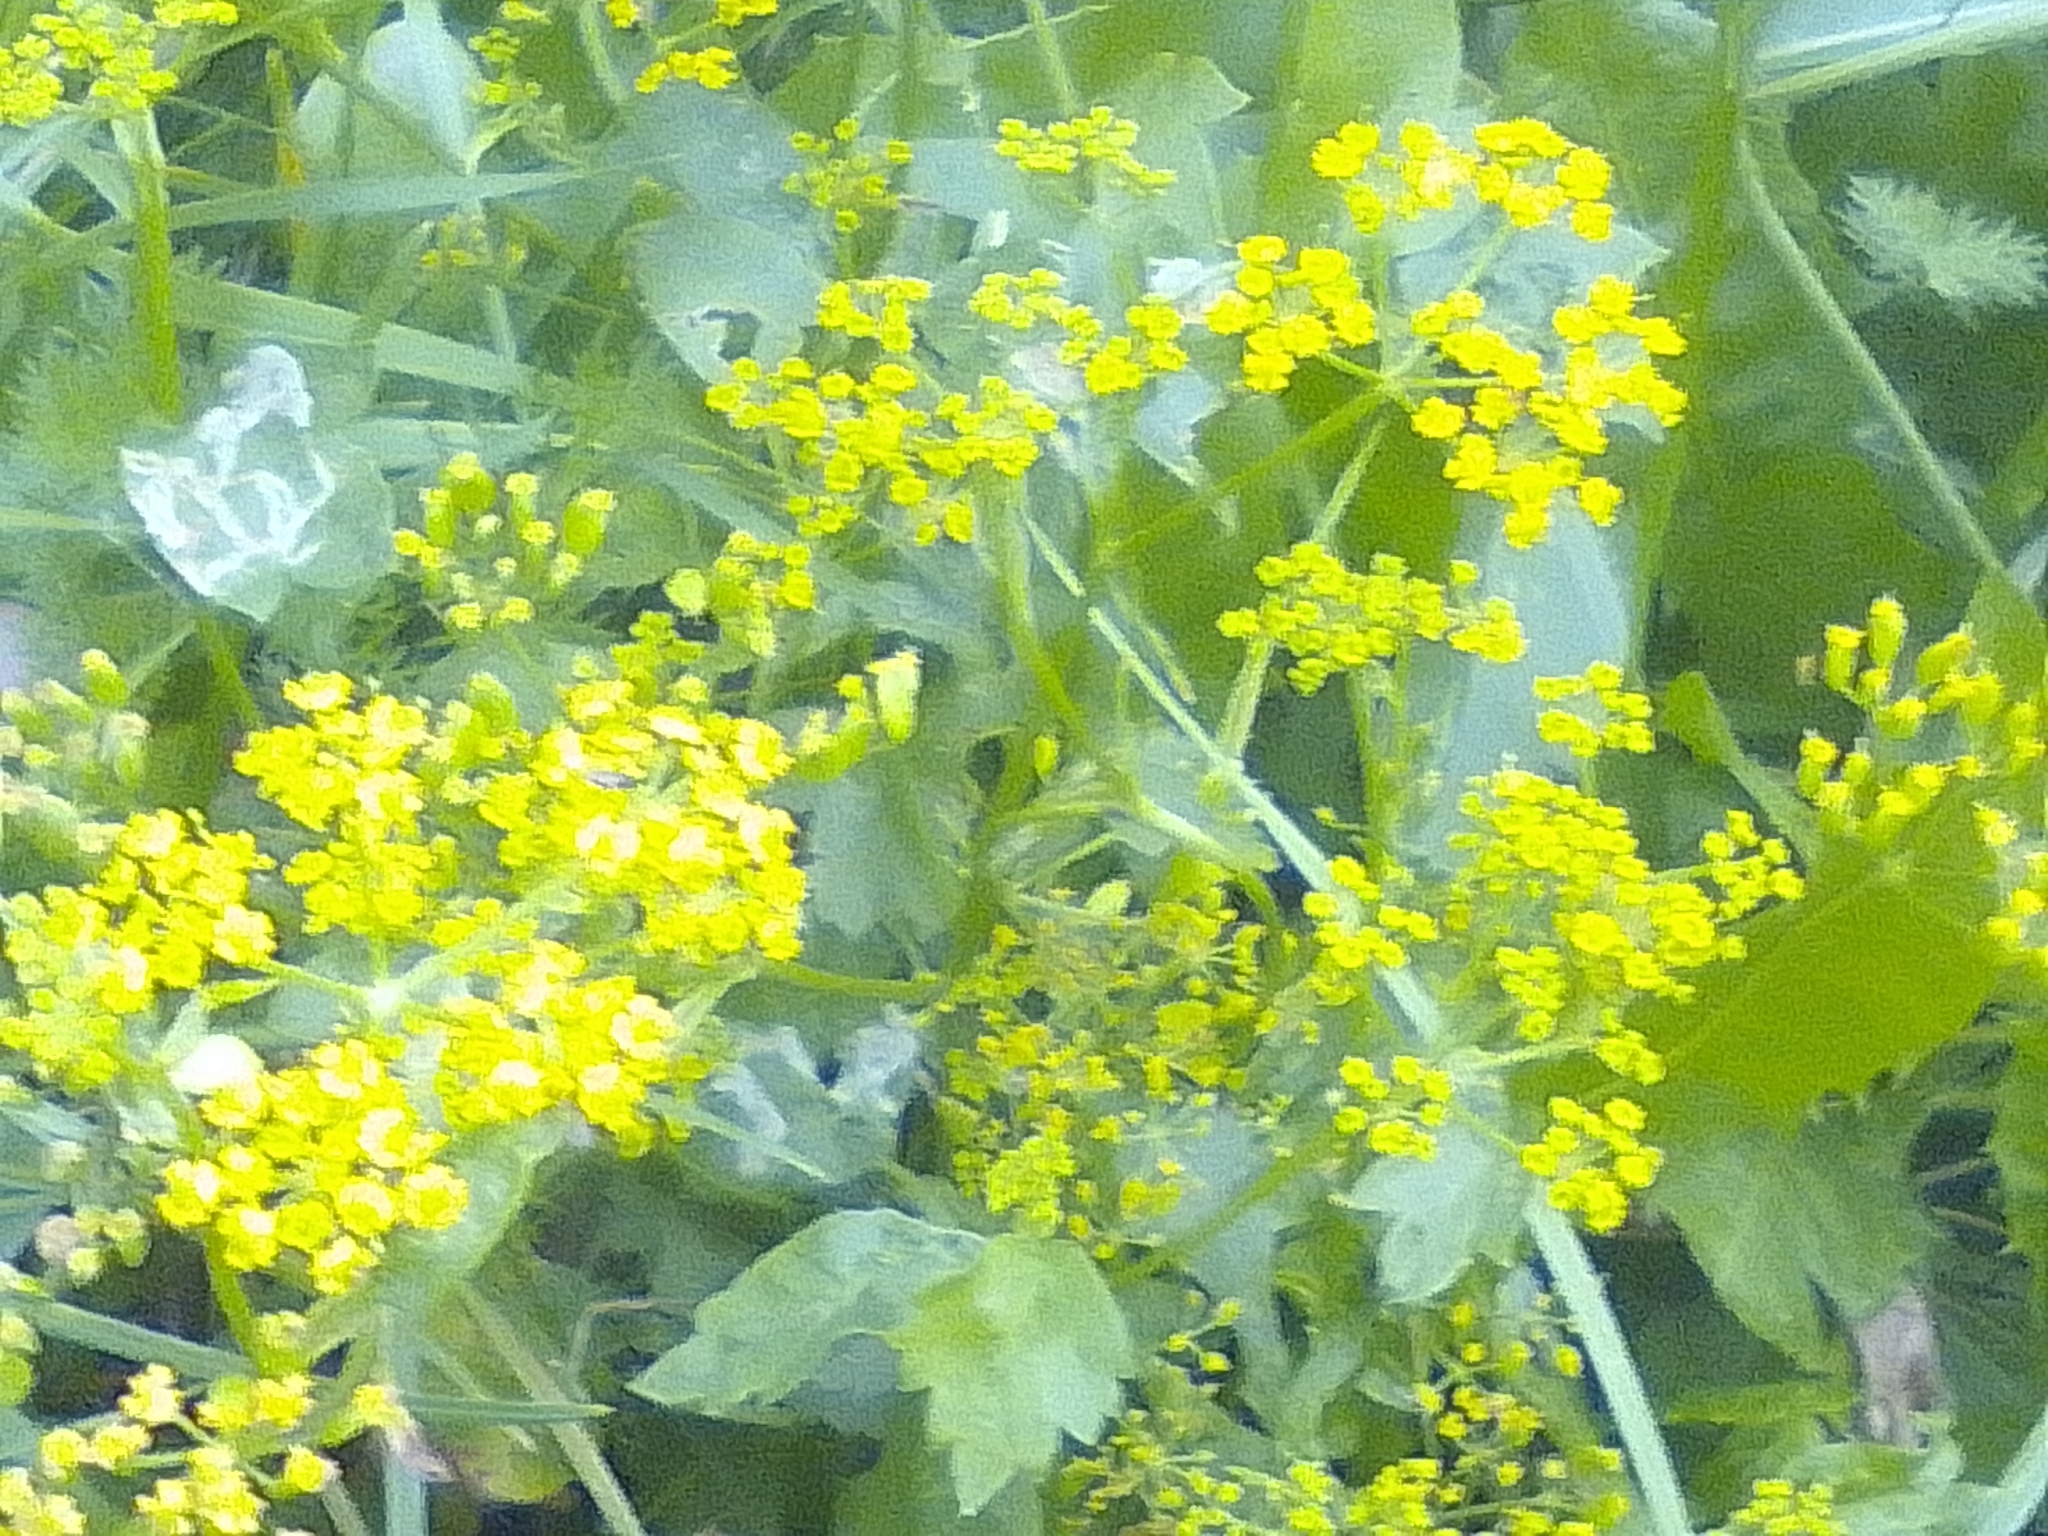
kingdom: Plantae
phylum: Tracheophyta
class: Magnoliopsida
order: Apiales
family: Apiaceae
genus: Pastinaca
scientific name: Pastinaca sativa
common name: Wild parsnip
